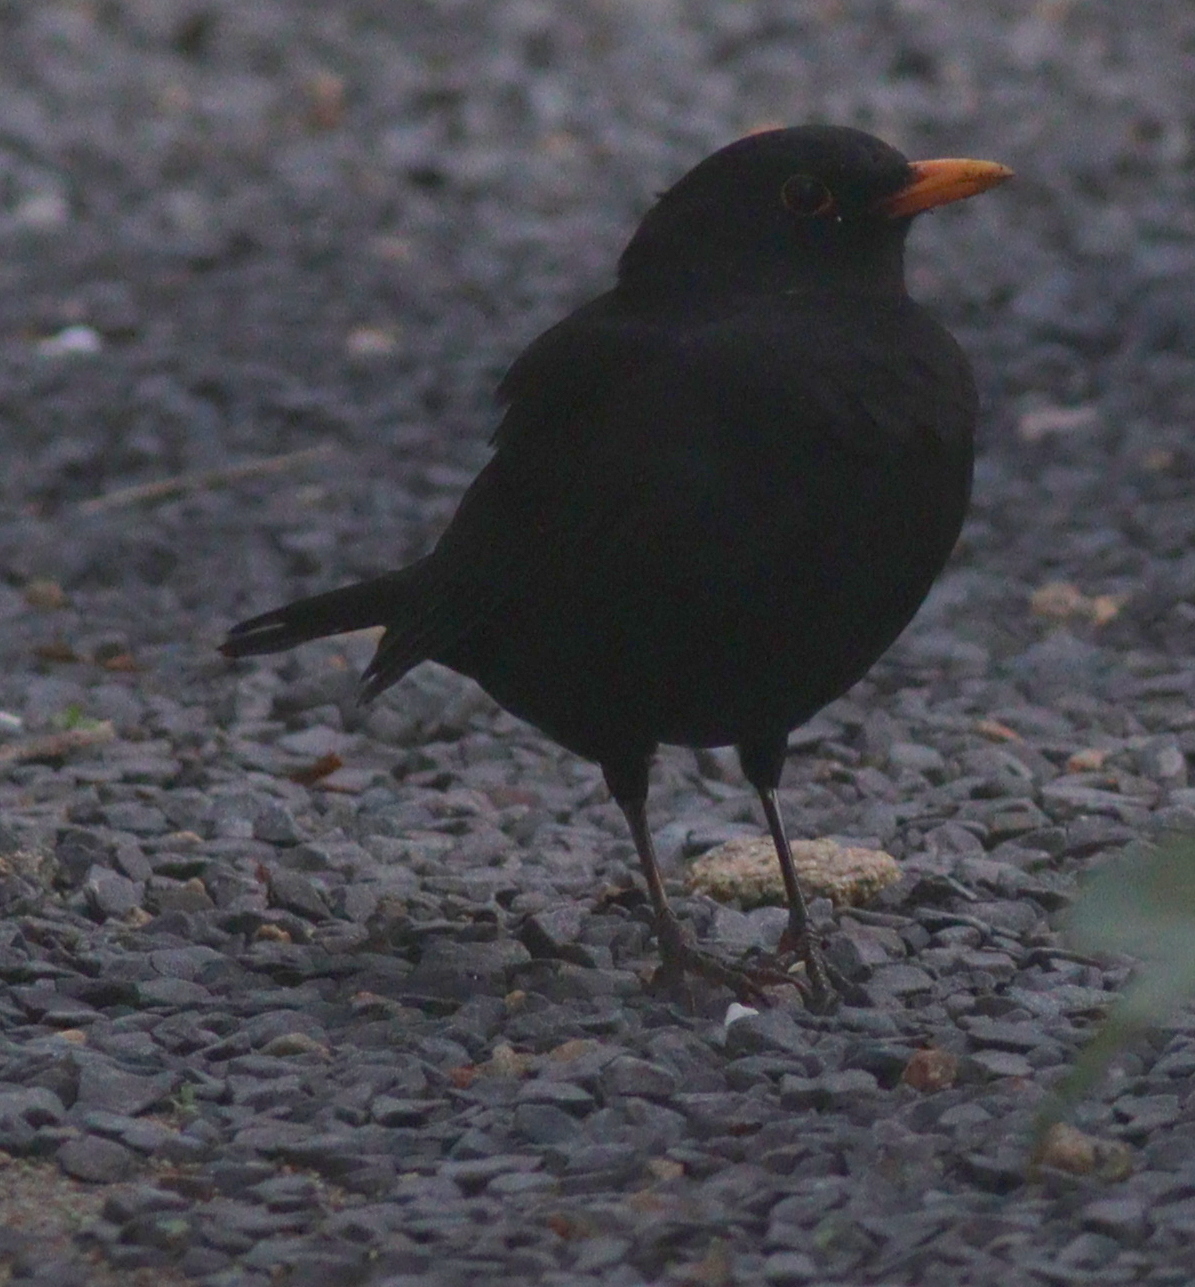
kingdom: Animalia
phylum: Chordata
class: Aves
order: Passeriformes
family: Turdidae
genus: Turdus
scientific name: Turdus merula
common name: Common blackbird
